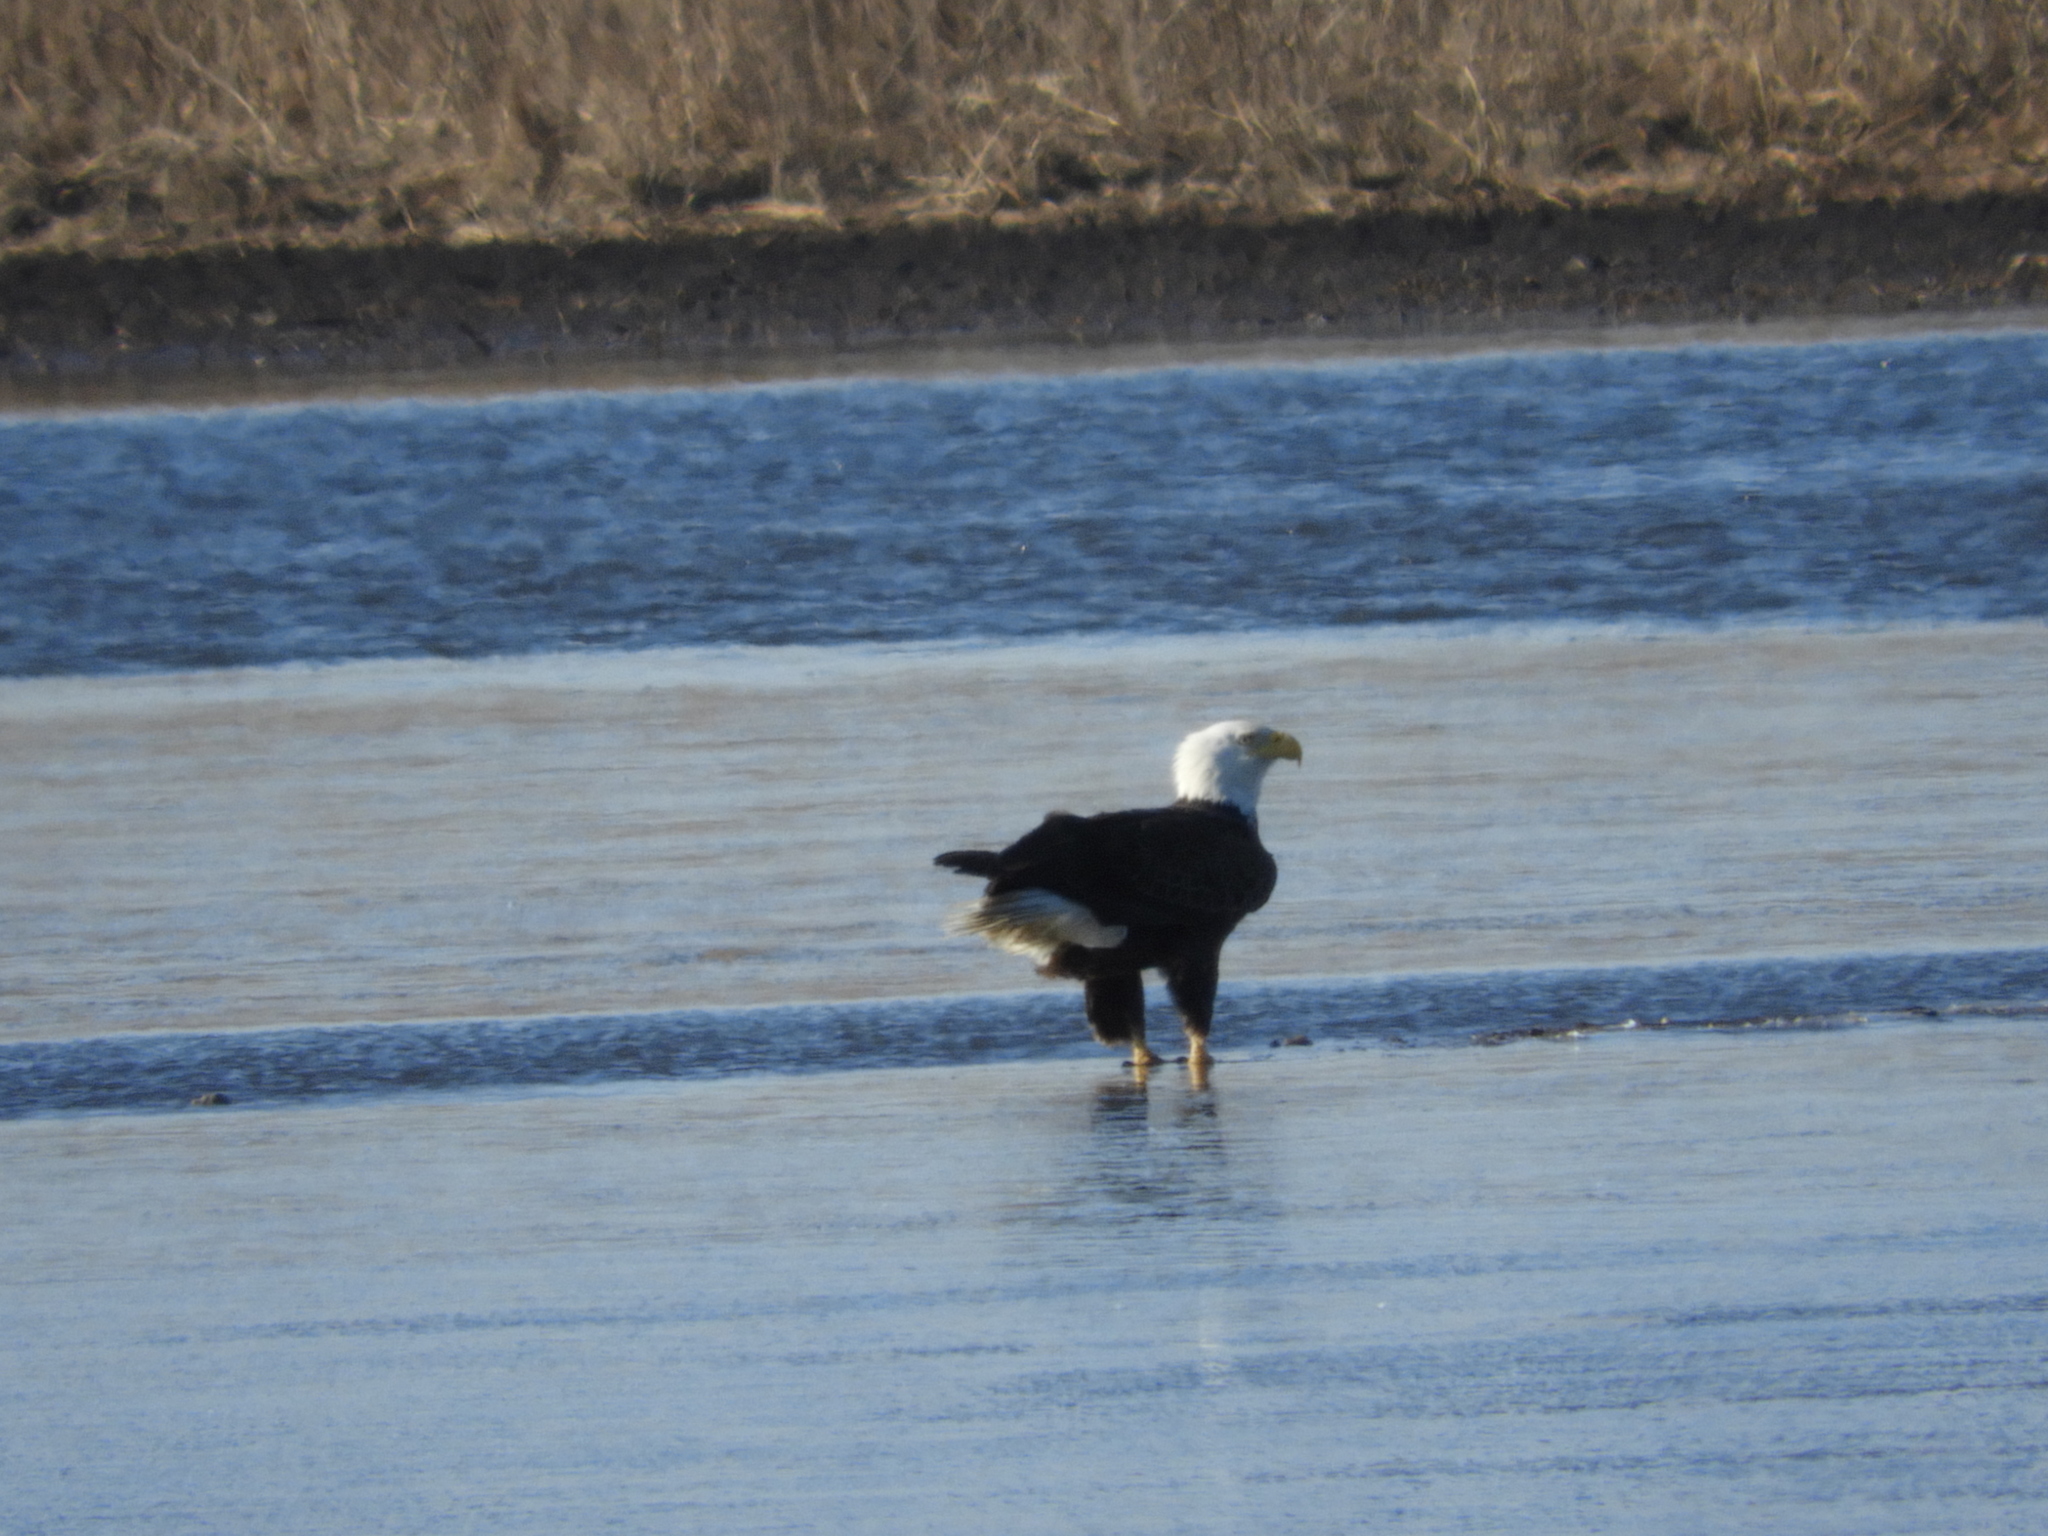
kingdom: Animalia
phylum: Chordata
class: Aves
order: Accipitriformes
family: Accipitridae
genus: Haliaeetus
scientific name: Haliaeetus leucocephalus
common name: Bald eagle
